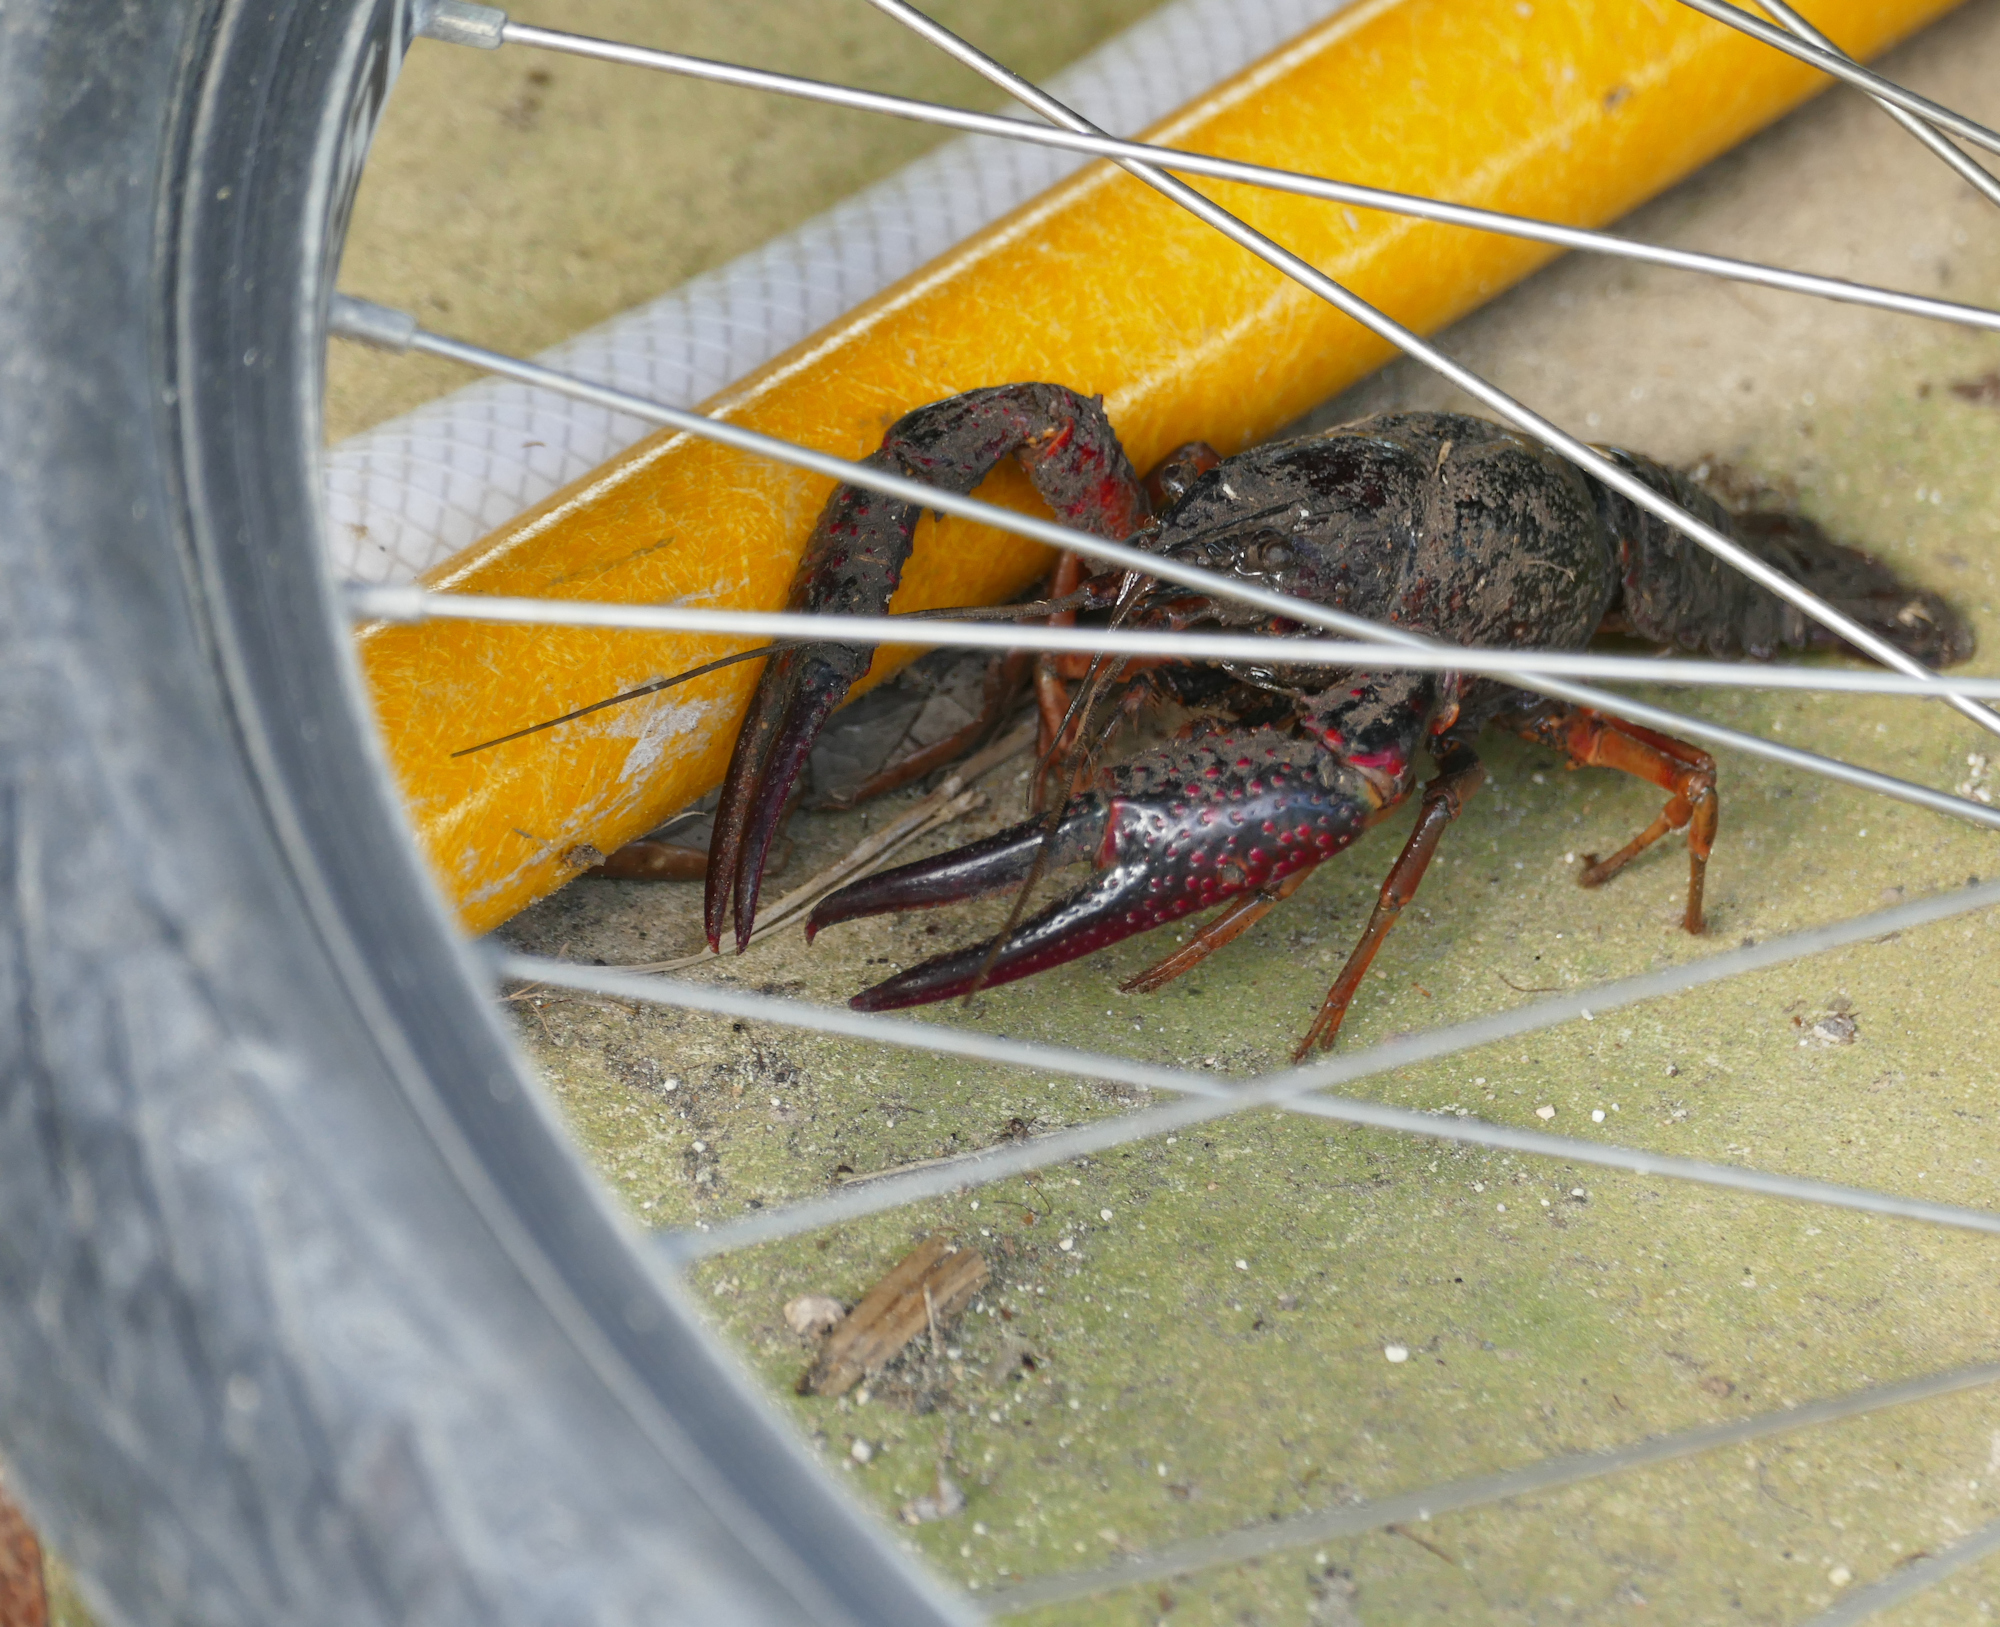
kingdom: Animalia
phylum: Arthropoda
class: Malacostraca
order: Decapoda
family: Cambaridae
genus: Procambarus
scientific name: Procambarus clarkii
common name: Red swamp crayfish
